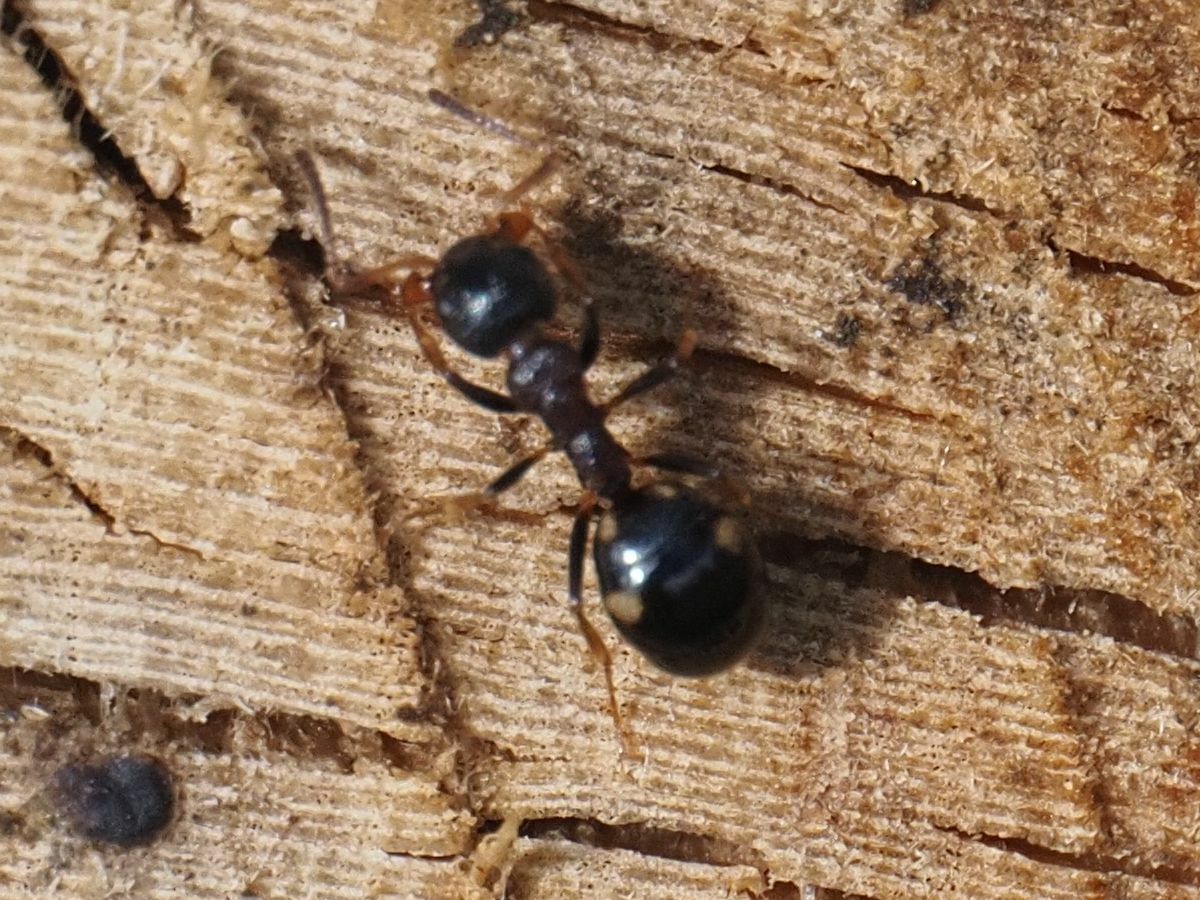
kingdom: Animalia
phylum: Arthropoda
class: Insecta
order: Hymenoptera
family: Formicidae
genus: Dolichoderus
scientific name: Dolichoderus quadripunctatus
